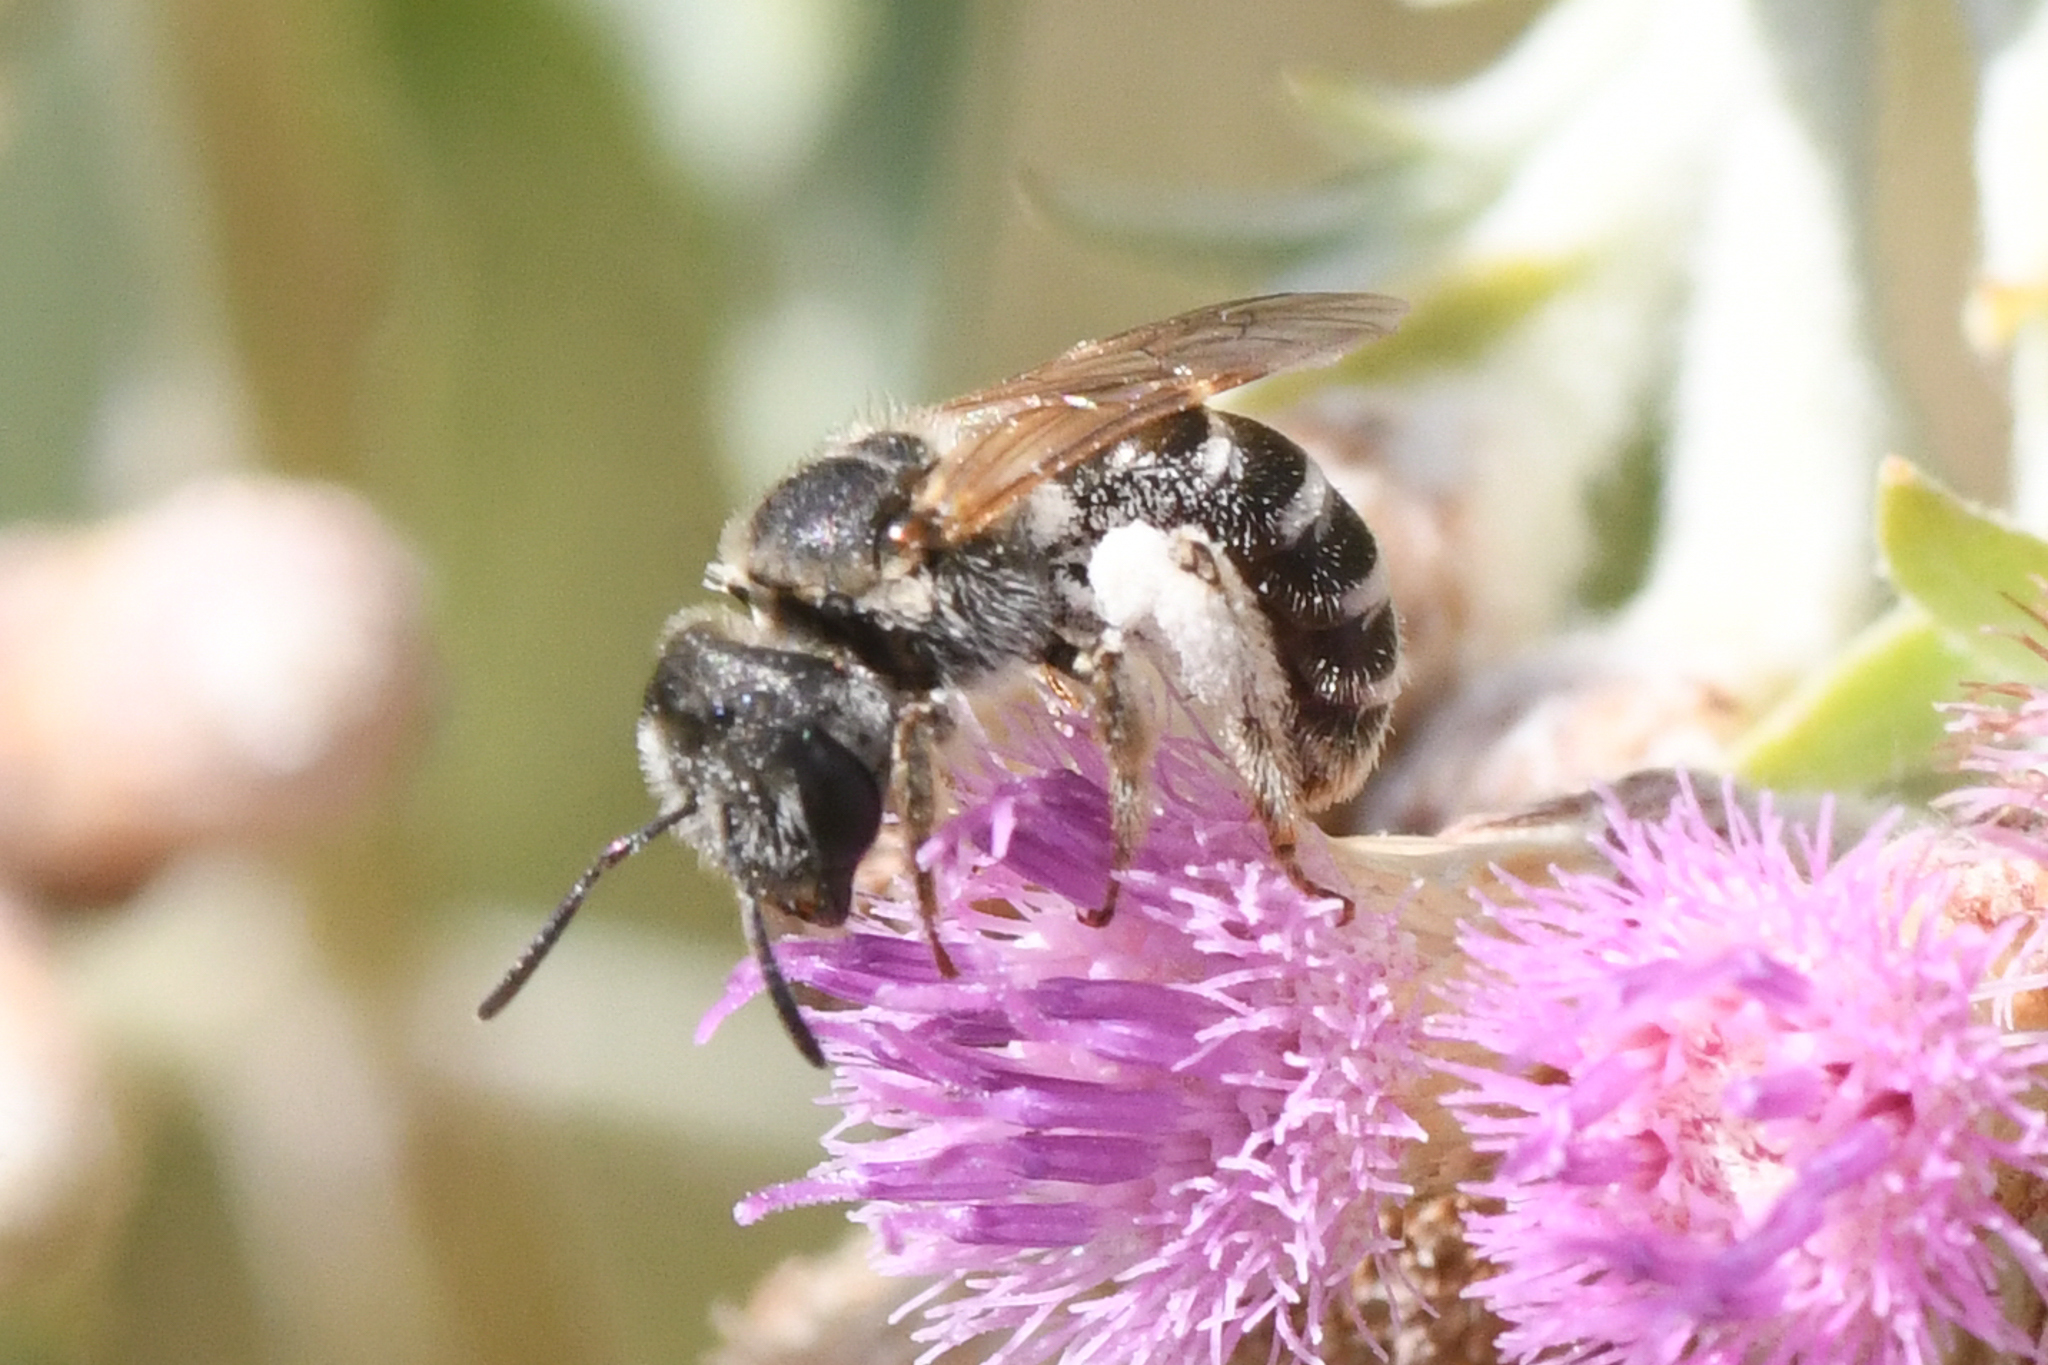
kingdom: Animalia
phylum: Arthropoda
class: Insecta
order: Hymenoptera
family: Halictidae
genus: Halictus
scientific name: Halictus ligatus
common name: Ligated furrow bee
